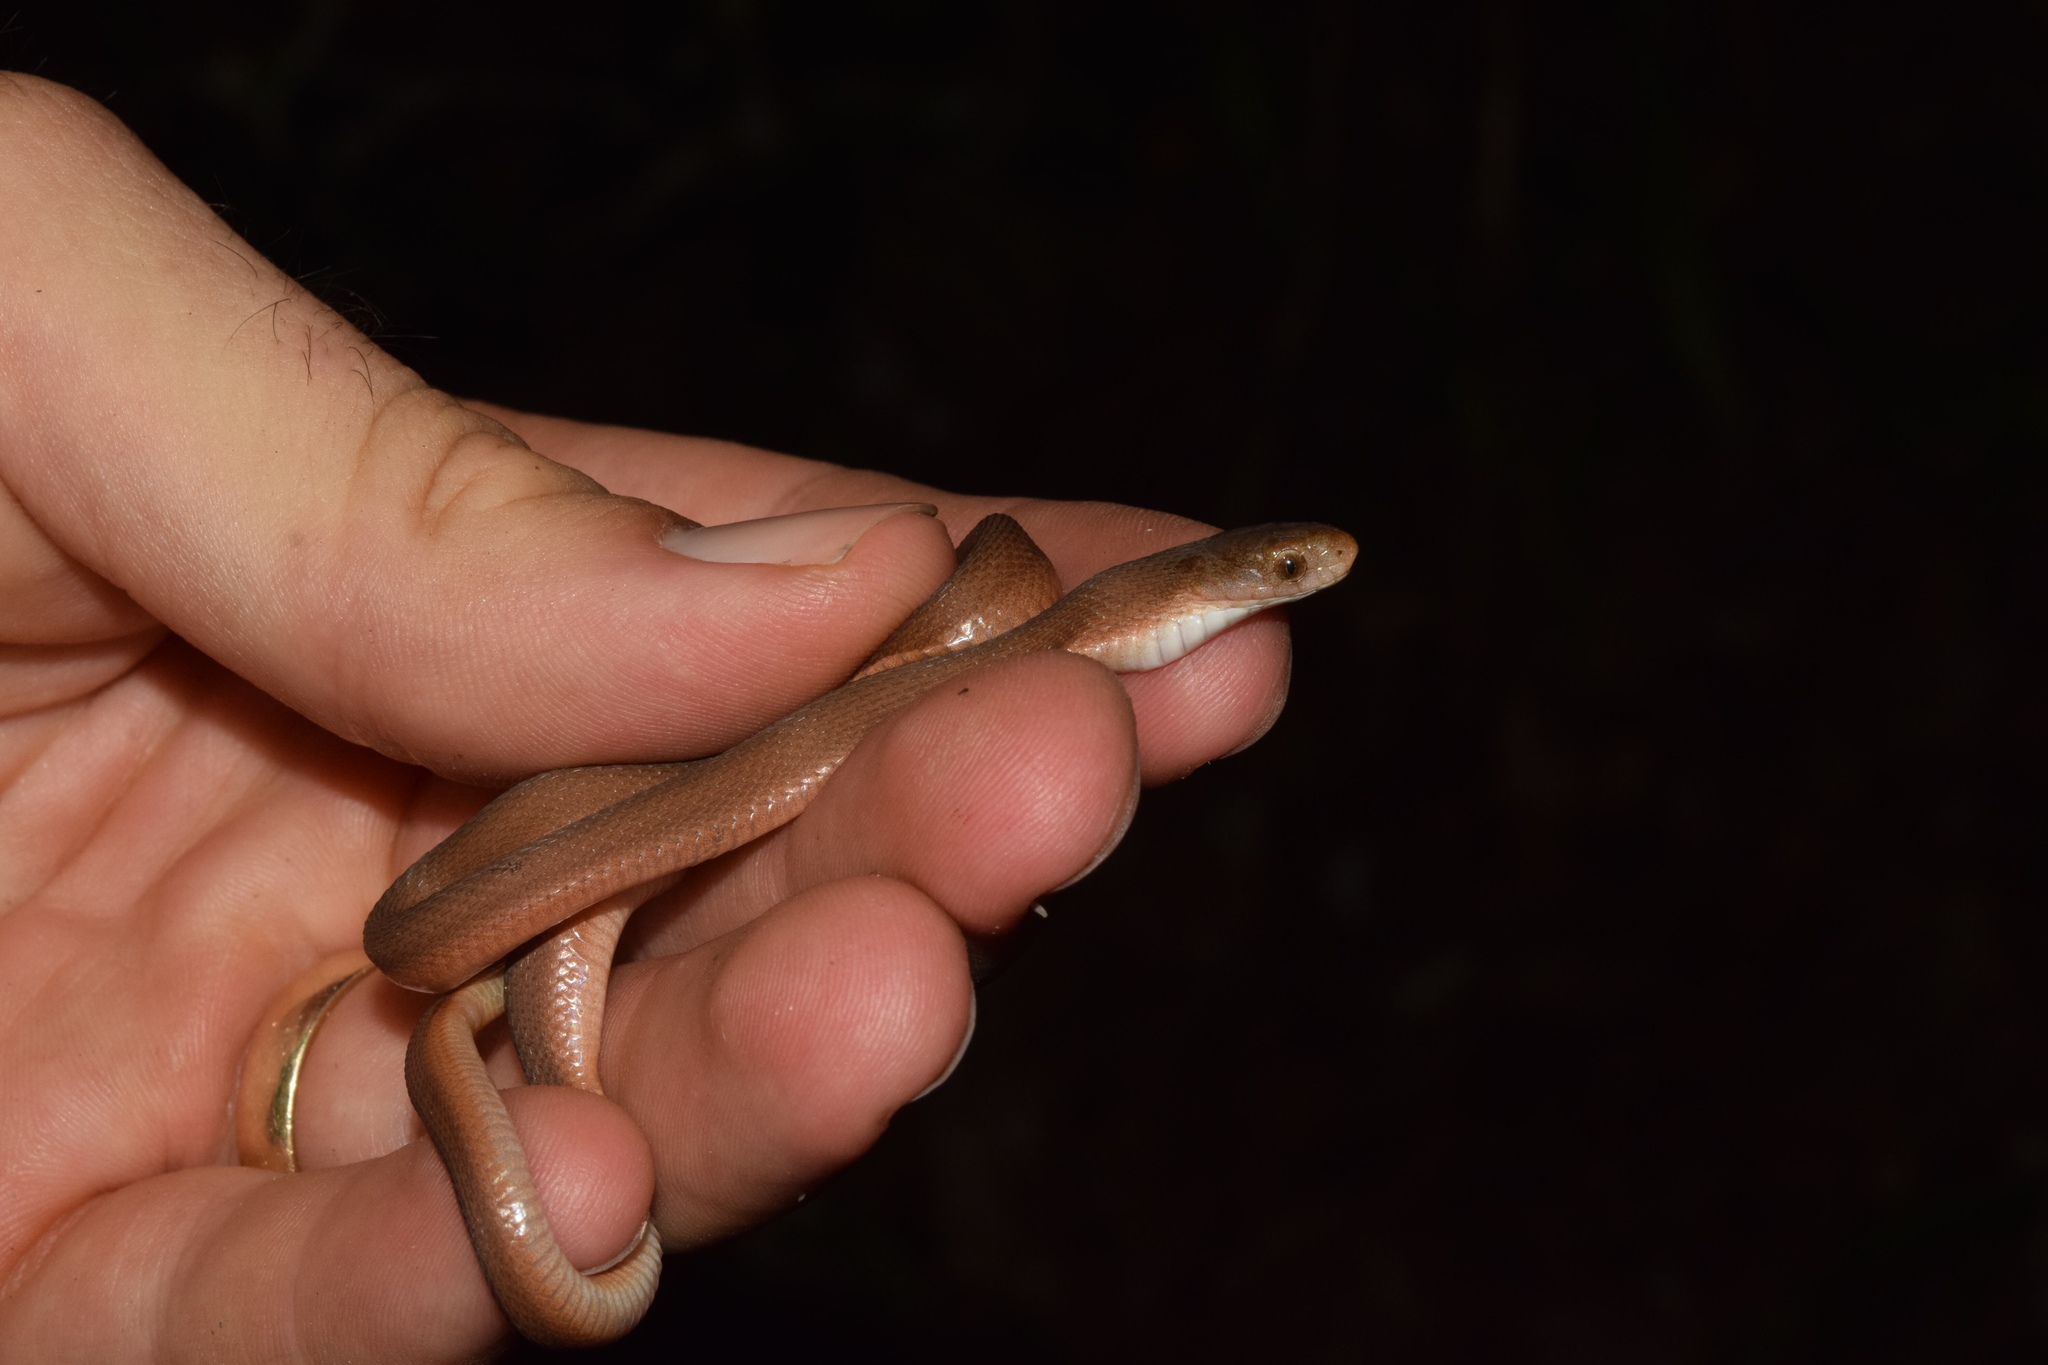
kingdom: Animalia
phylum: Chordata
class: Squamata
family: Colubridae
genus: Dasypeltis
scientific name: Dasypeltis inornata
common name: Southern brown egg eater
